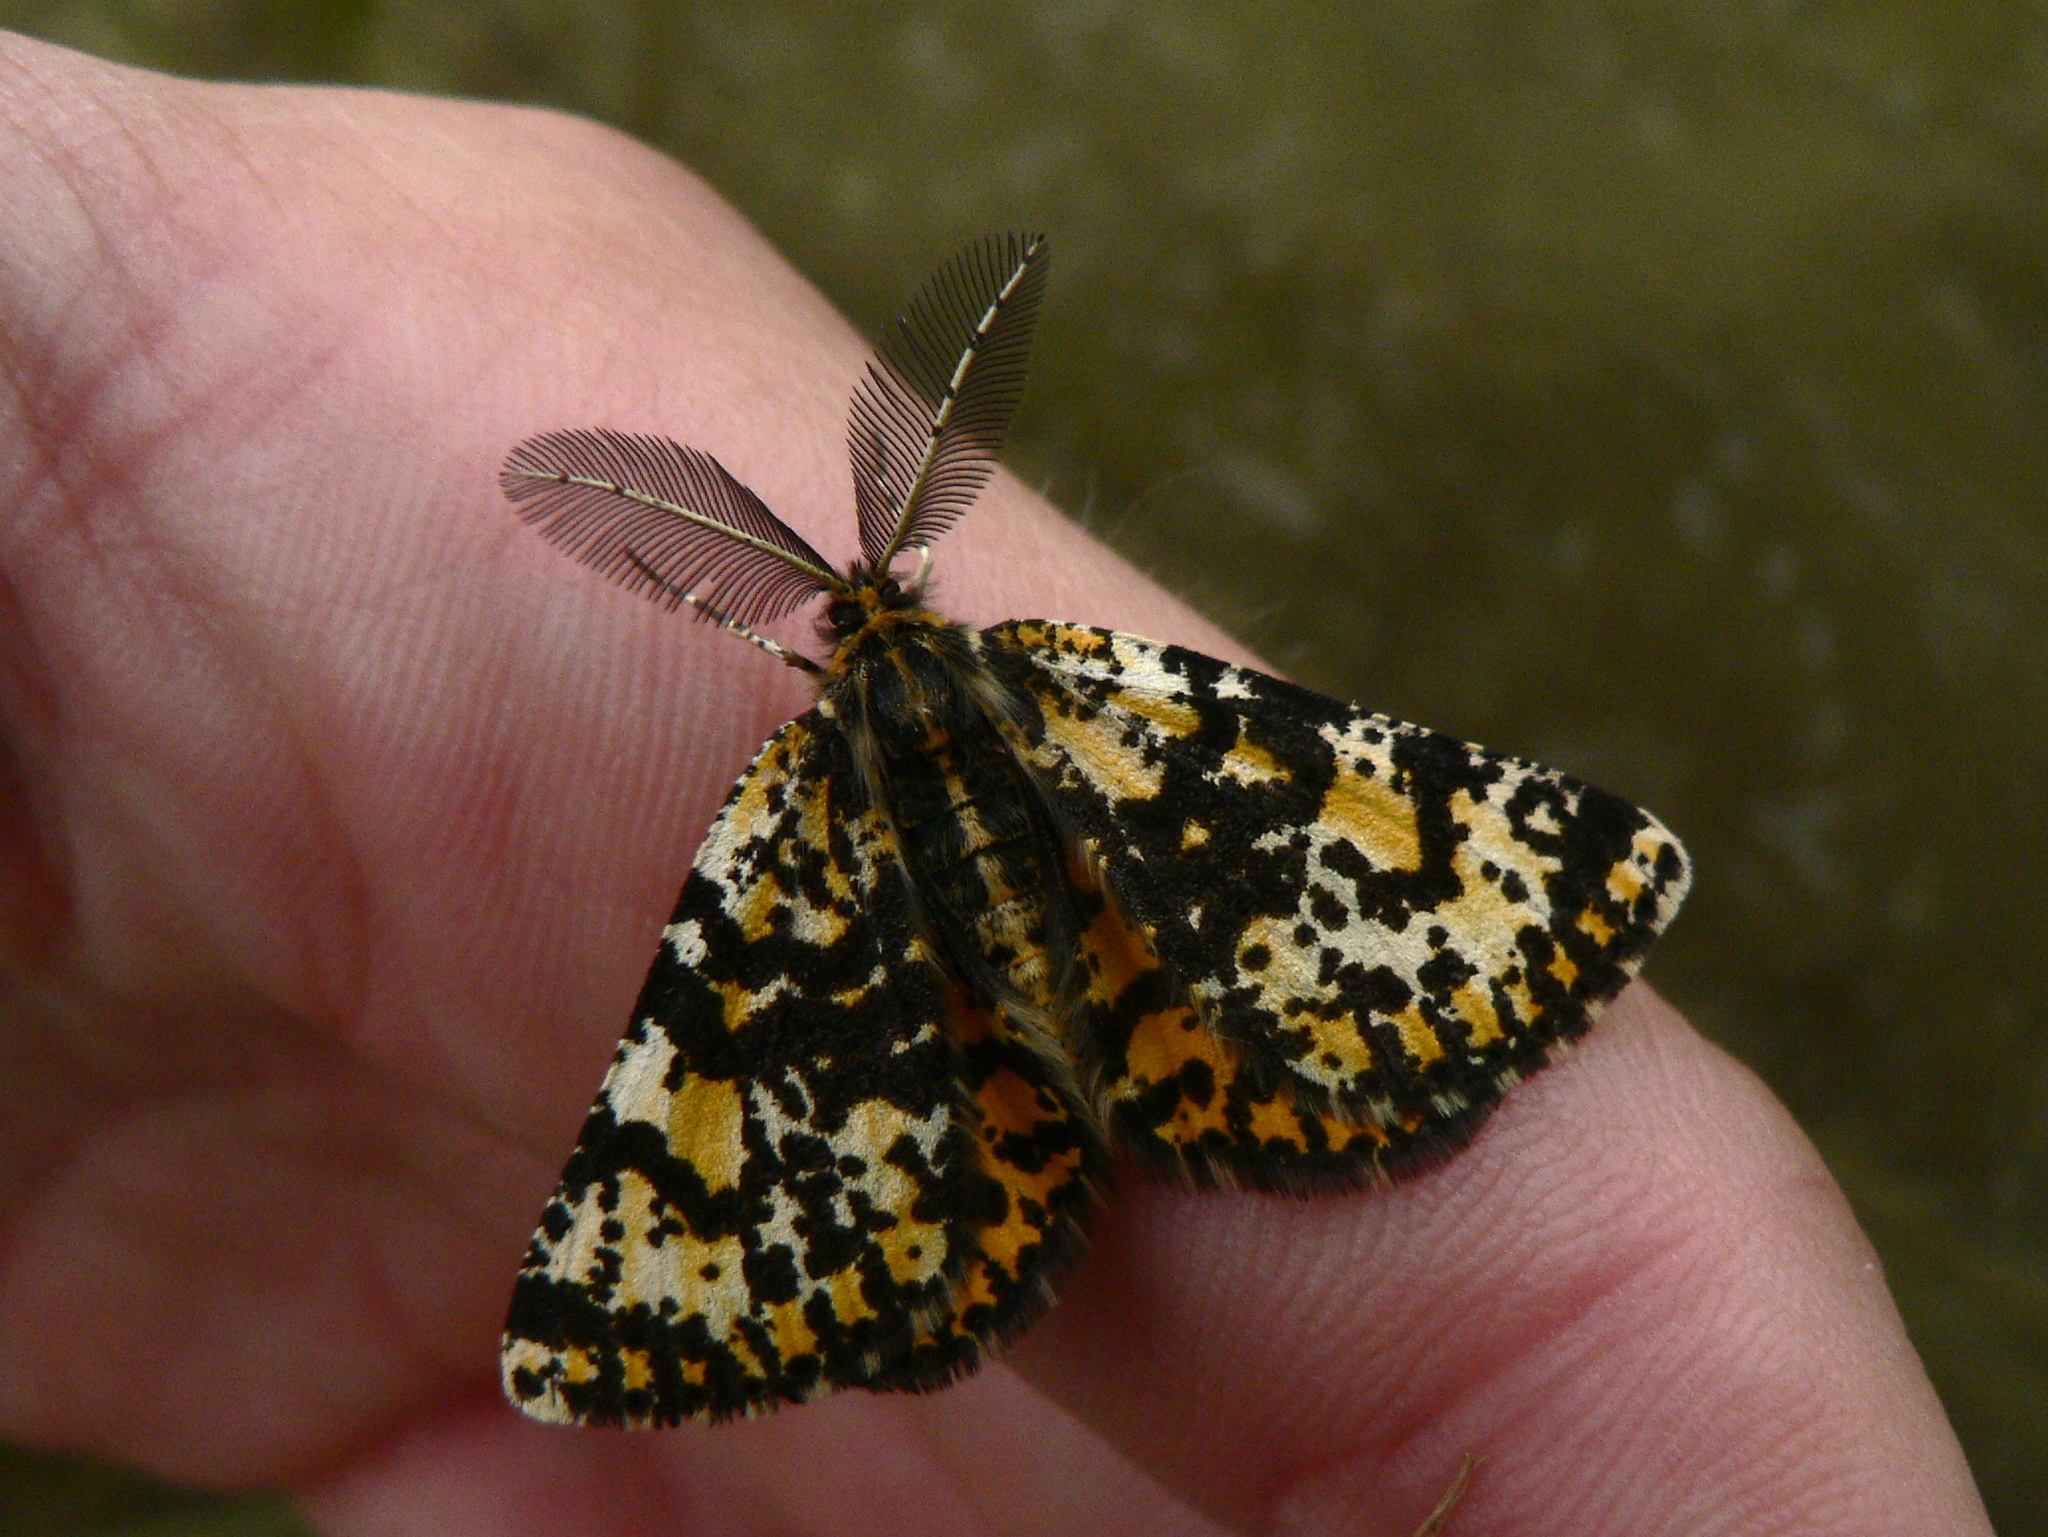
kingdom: Animalia
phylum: Arthropoda
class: Insecta
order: Lepidoptera
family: Geometridae
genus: Eurranthis
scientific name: Eurranthis plummistaria
